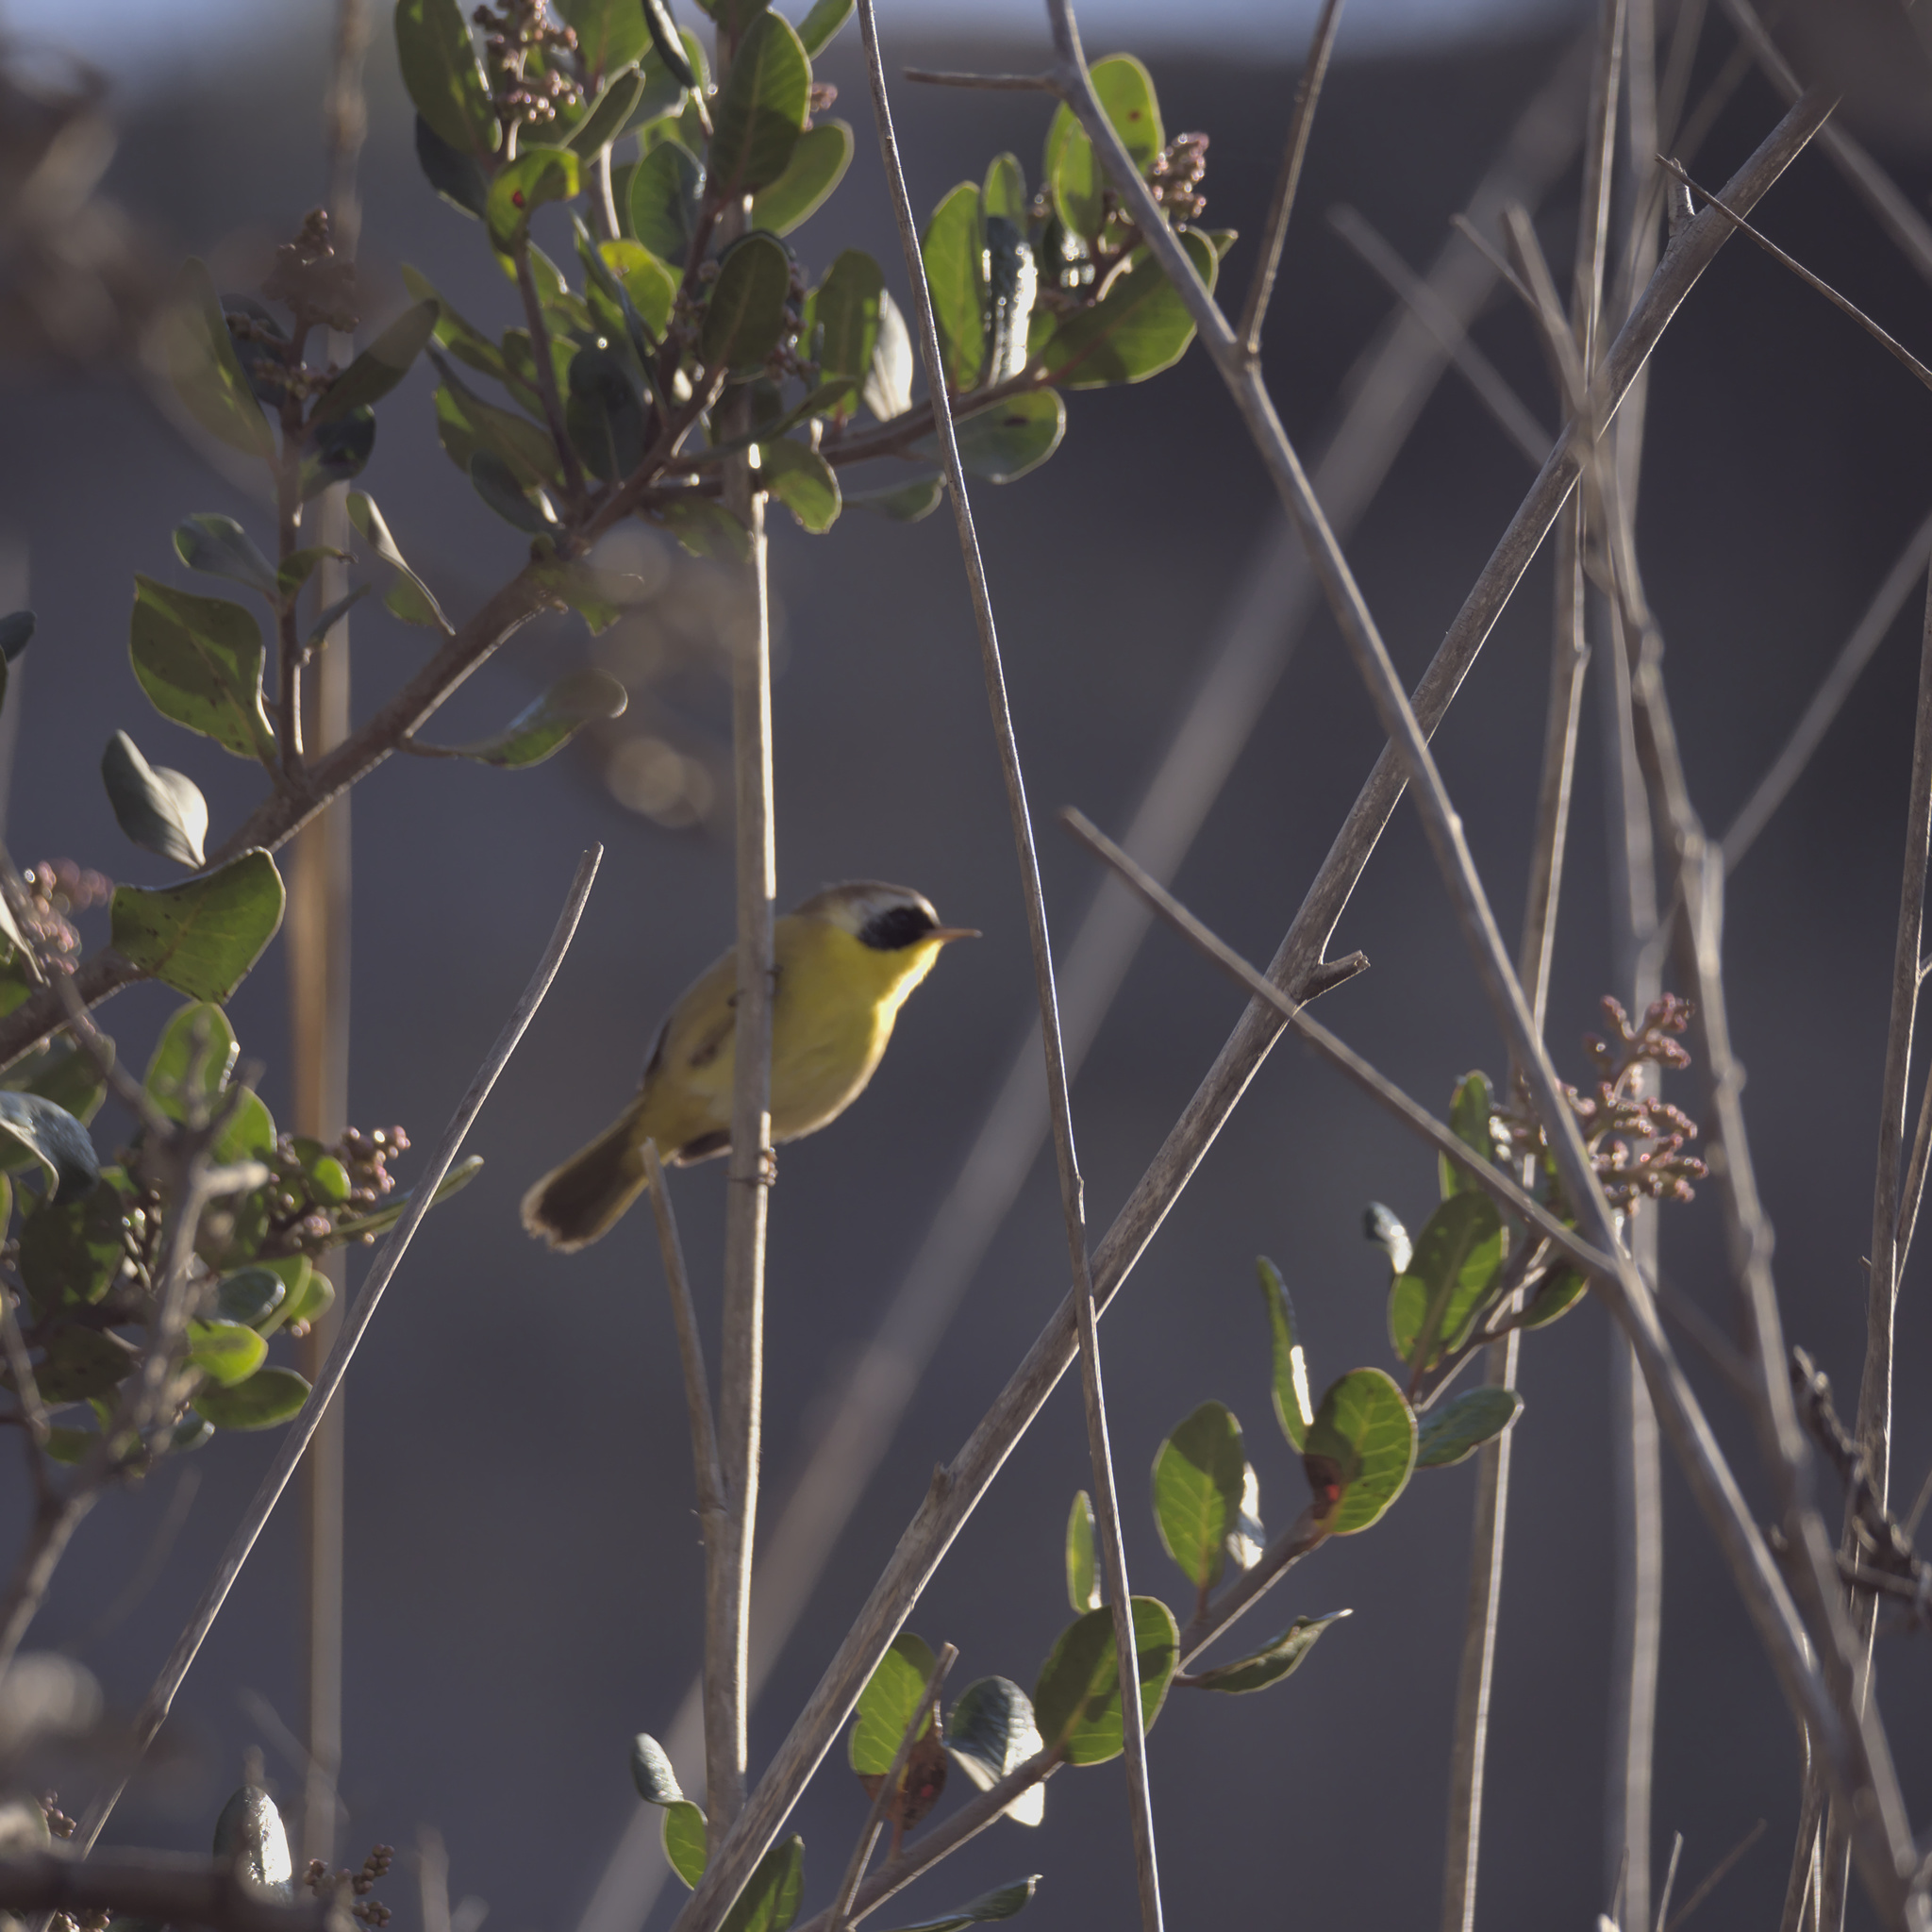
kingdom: Animalia
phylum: Chordata
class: Aves
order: Passeriformes
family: Parulidae
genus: Geothlypis
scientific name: Geothlypis trichas
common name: Common yellowthroat
